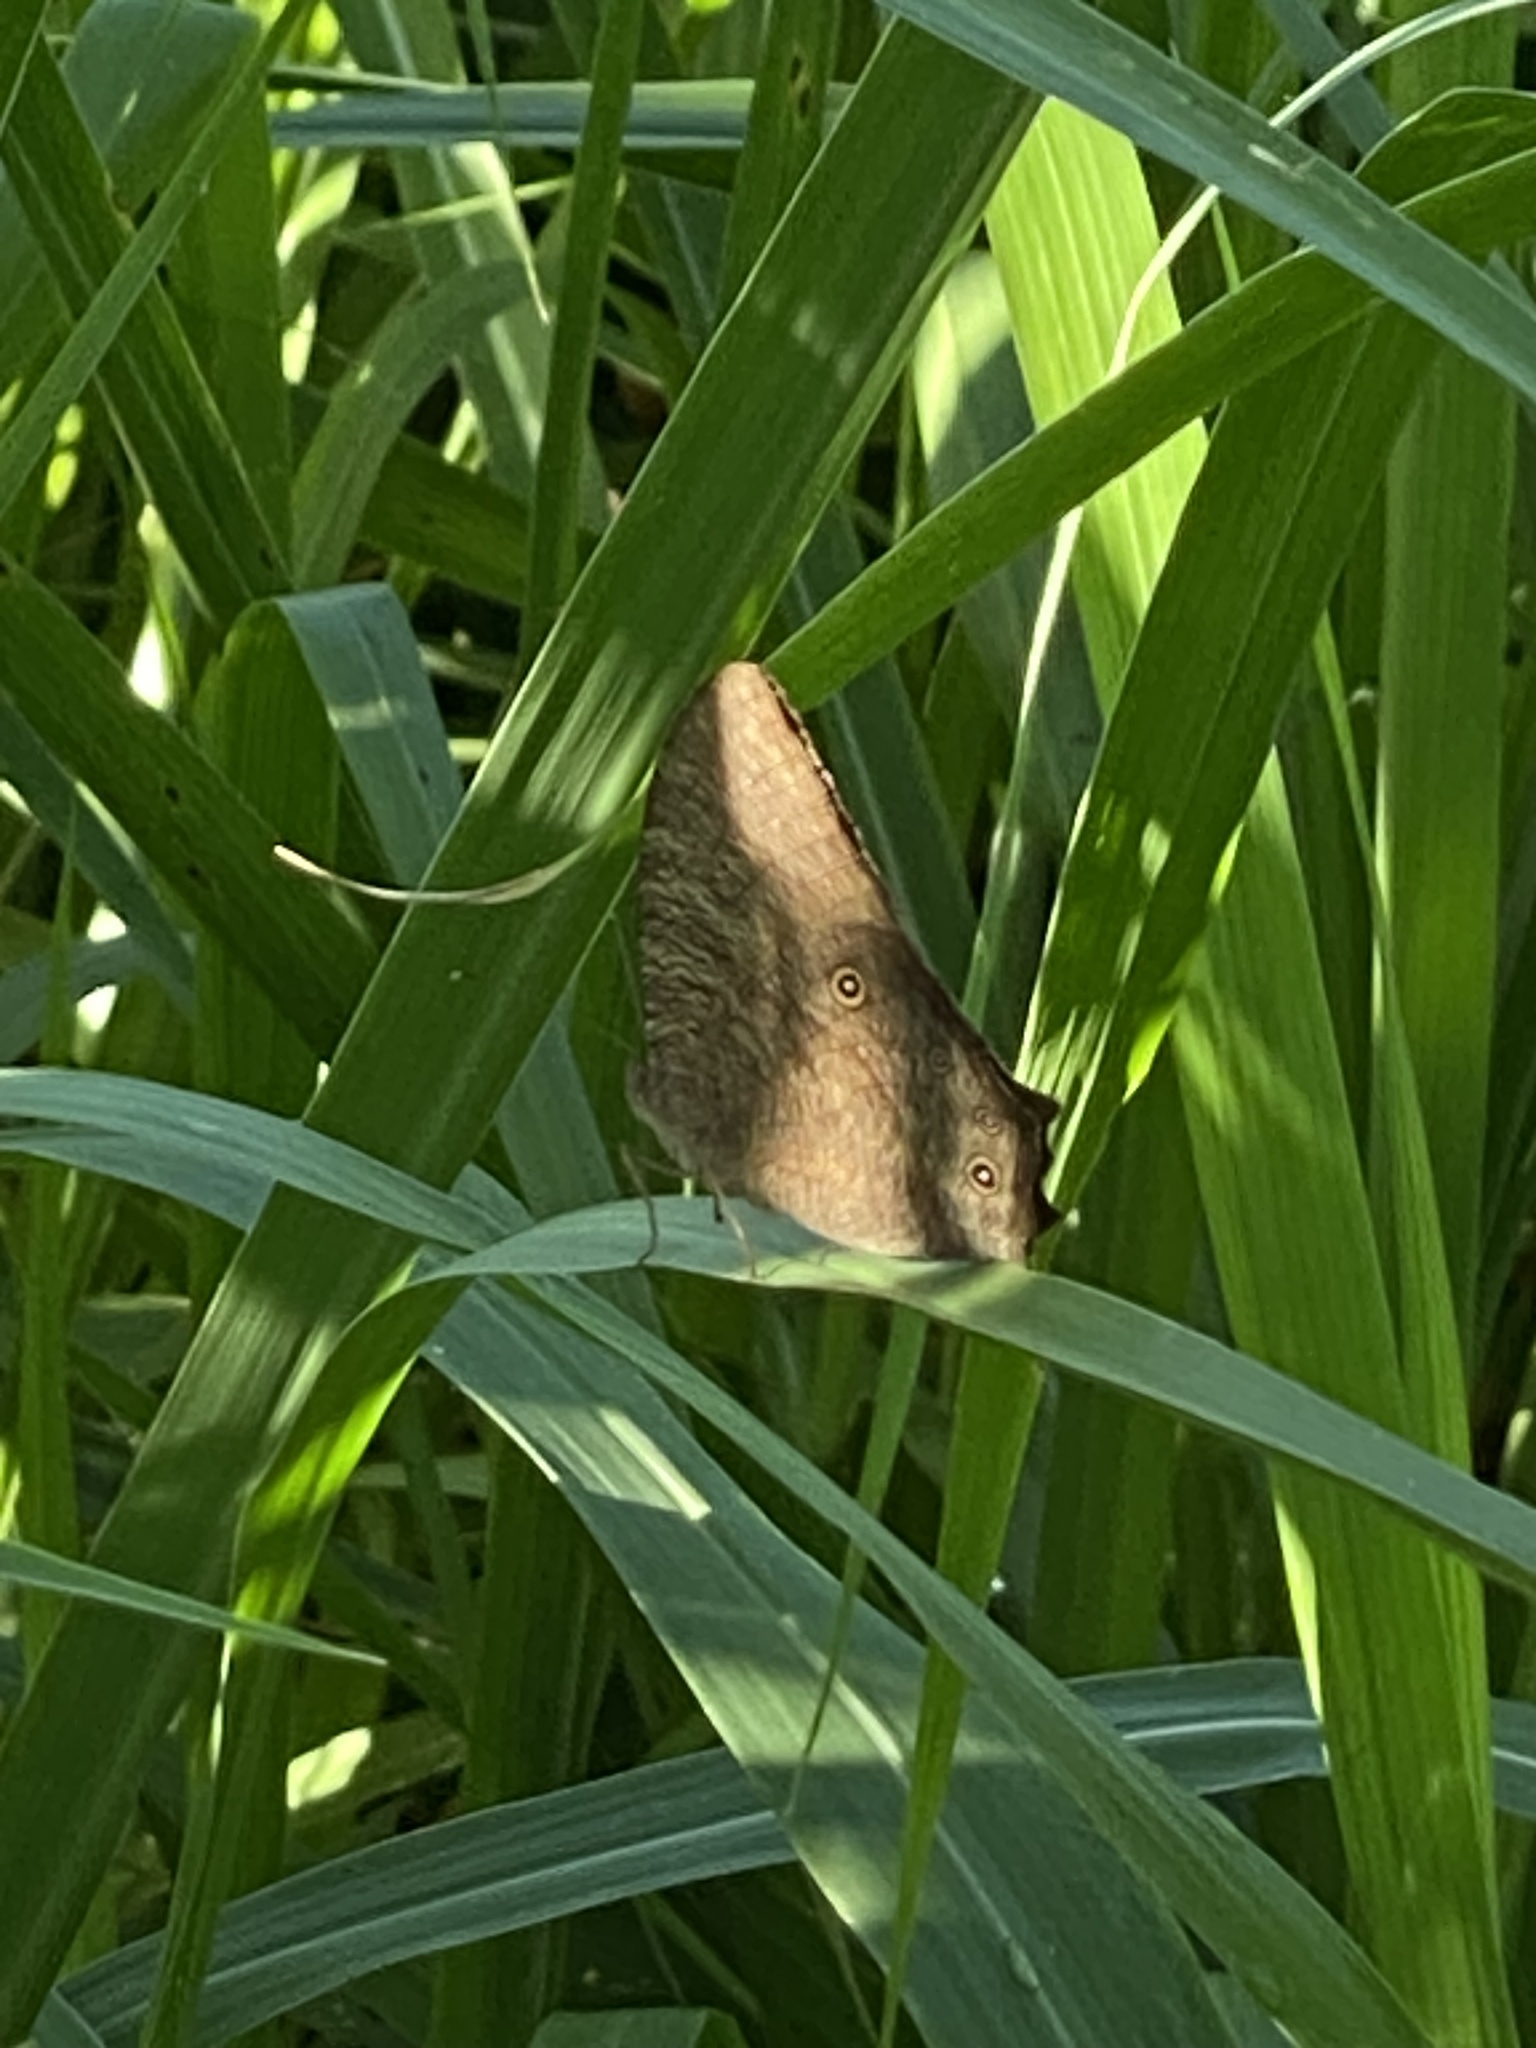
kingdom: Animalia
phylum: Arthropoda
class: Insecta
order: Lepidoptera
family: Nymphalidae
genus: Melanitis
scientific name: Melanitis leda
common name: Twilight brown
